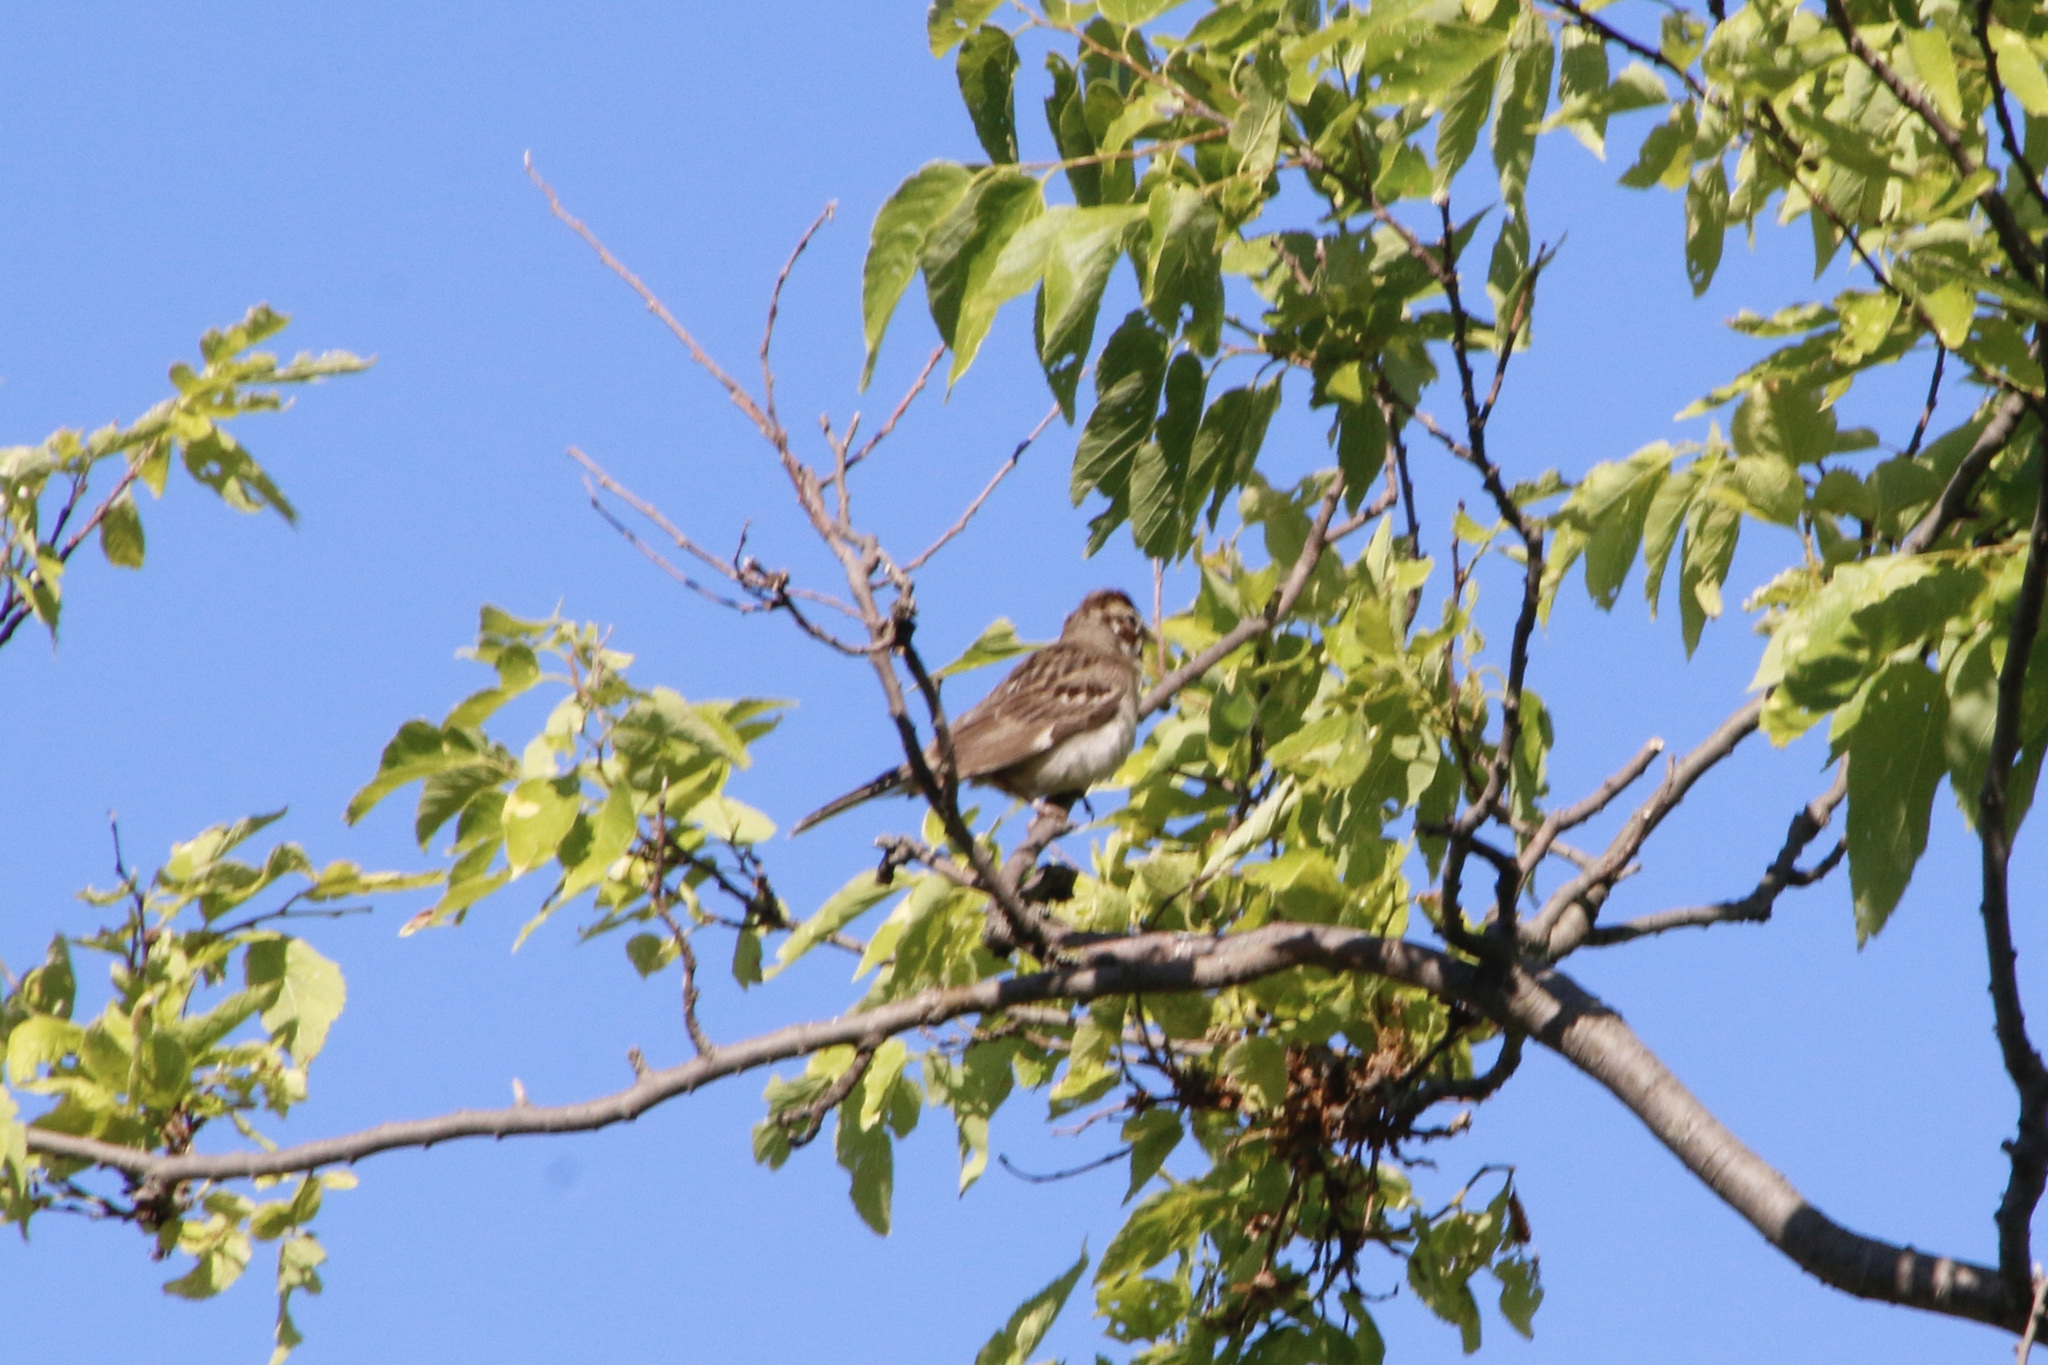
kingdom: Animalia
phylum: Chordata
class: Aves
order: Passeriformes
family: Passerellidae
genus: Chondestes
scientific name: Chondestes grammacus
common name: Lark sparrow
